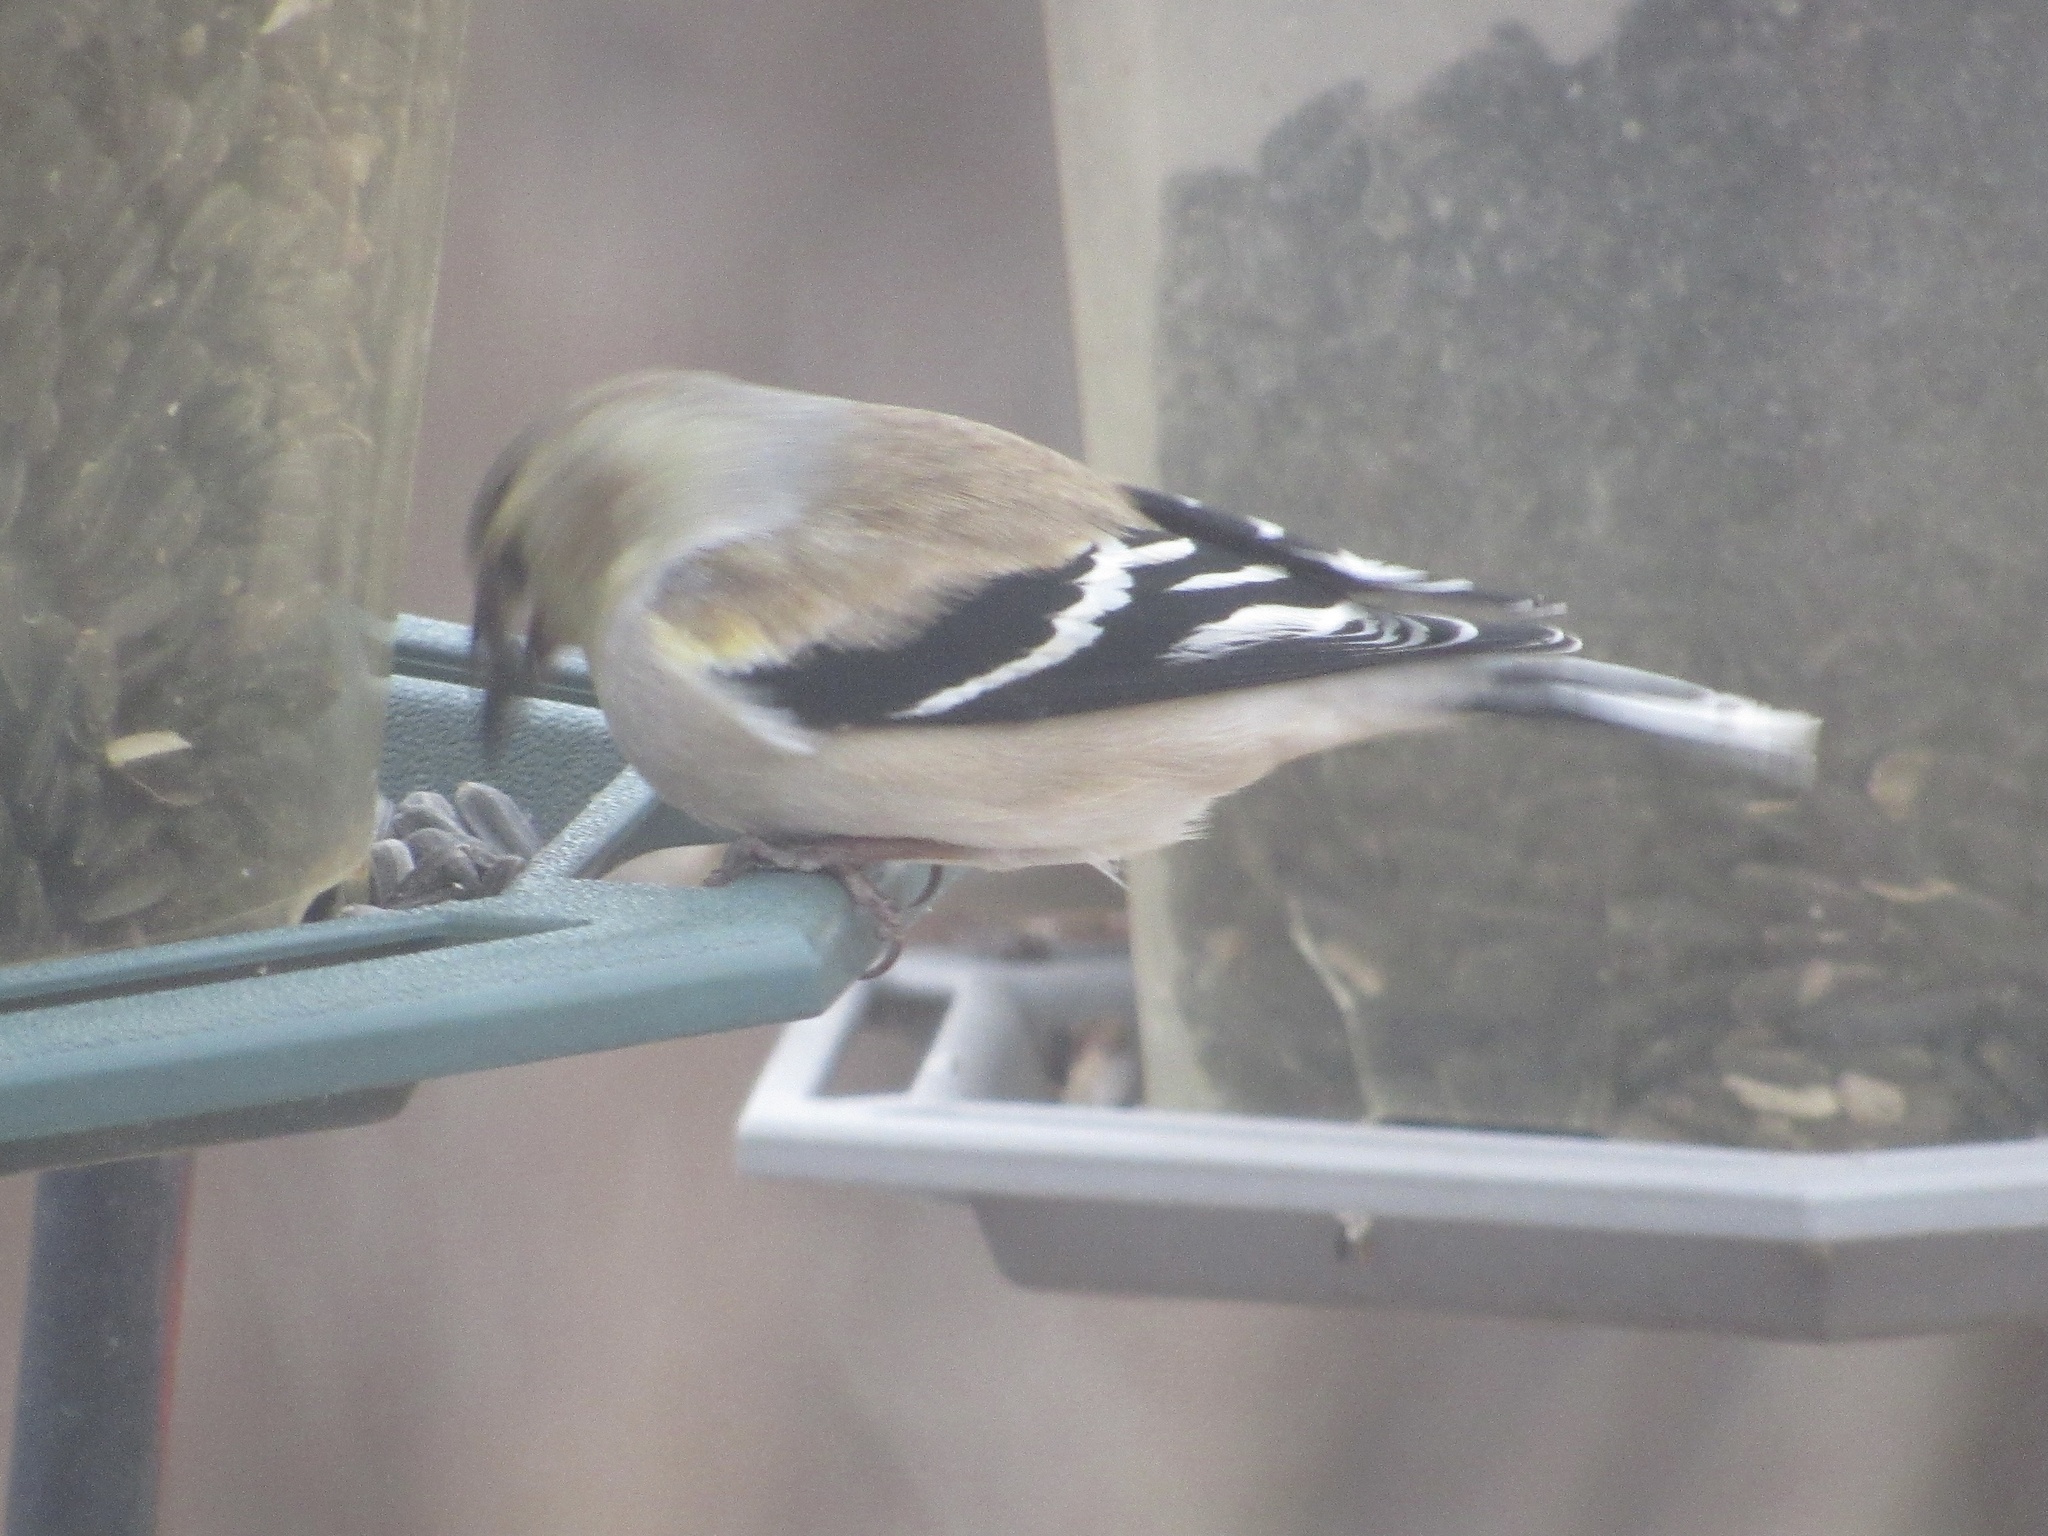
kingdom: Animalia
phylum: Chordata
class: Aves
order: Passeriformes
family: Fringillidae
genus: Spinus
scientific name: Spinus tristis
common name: American goldfinch
